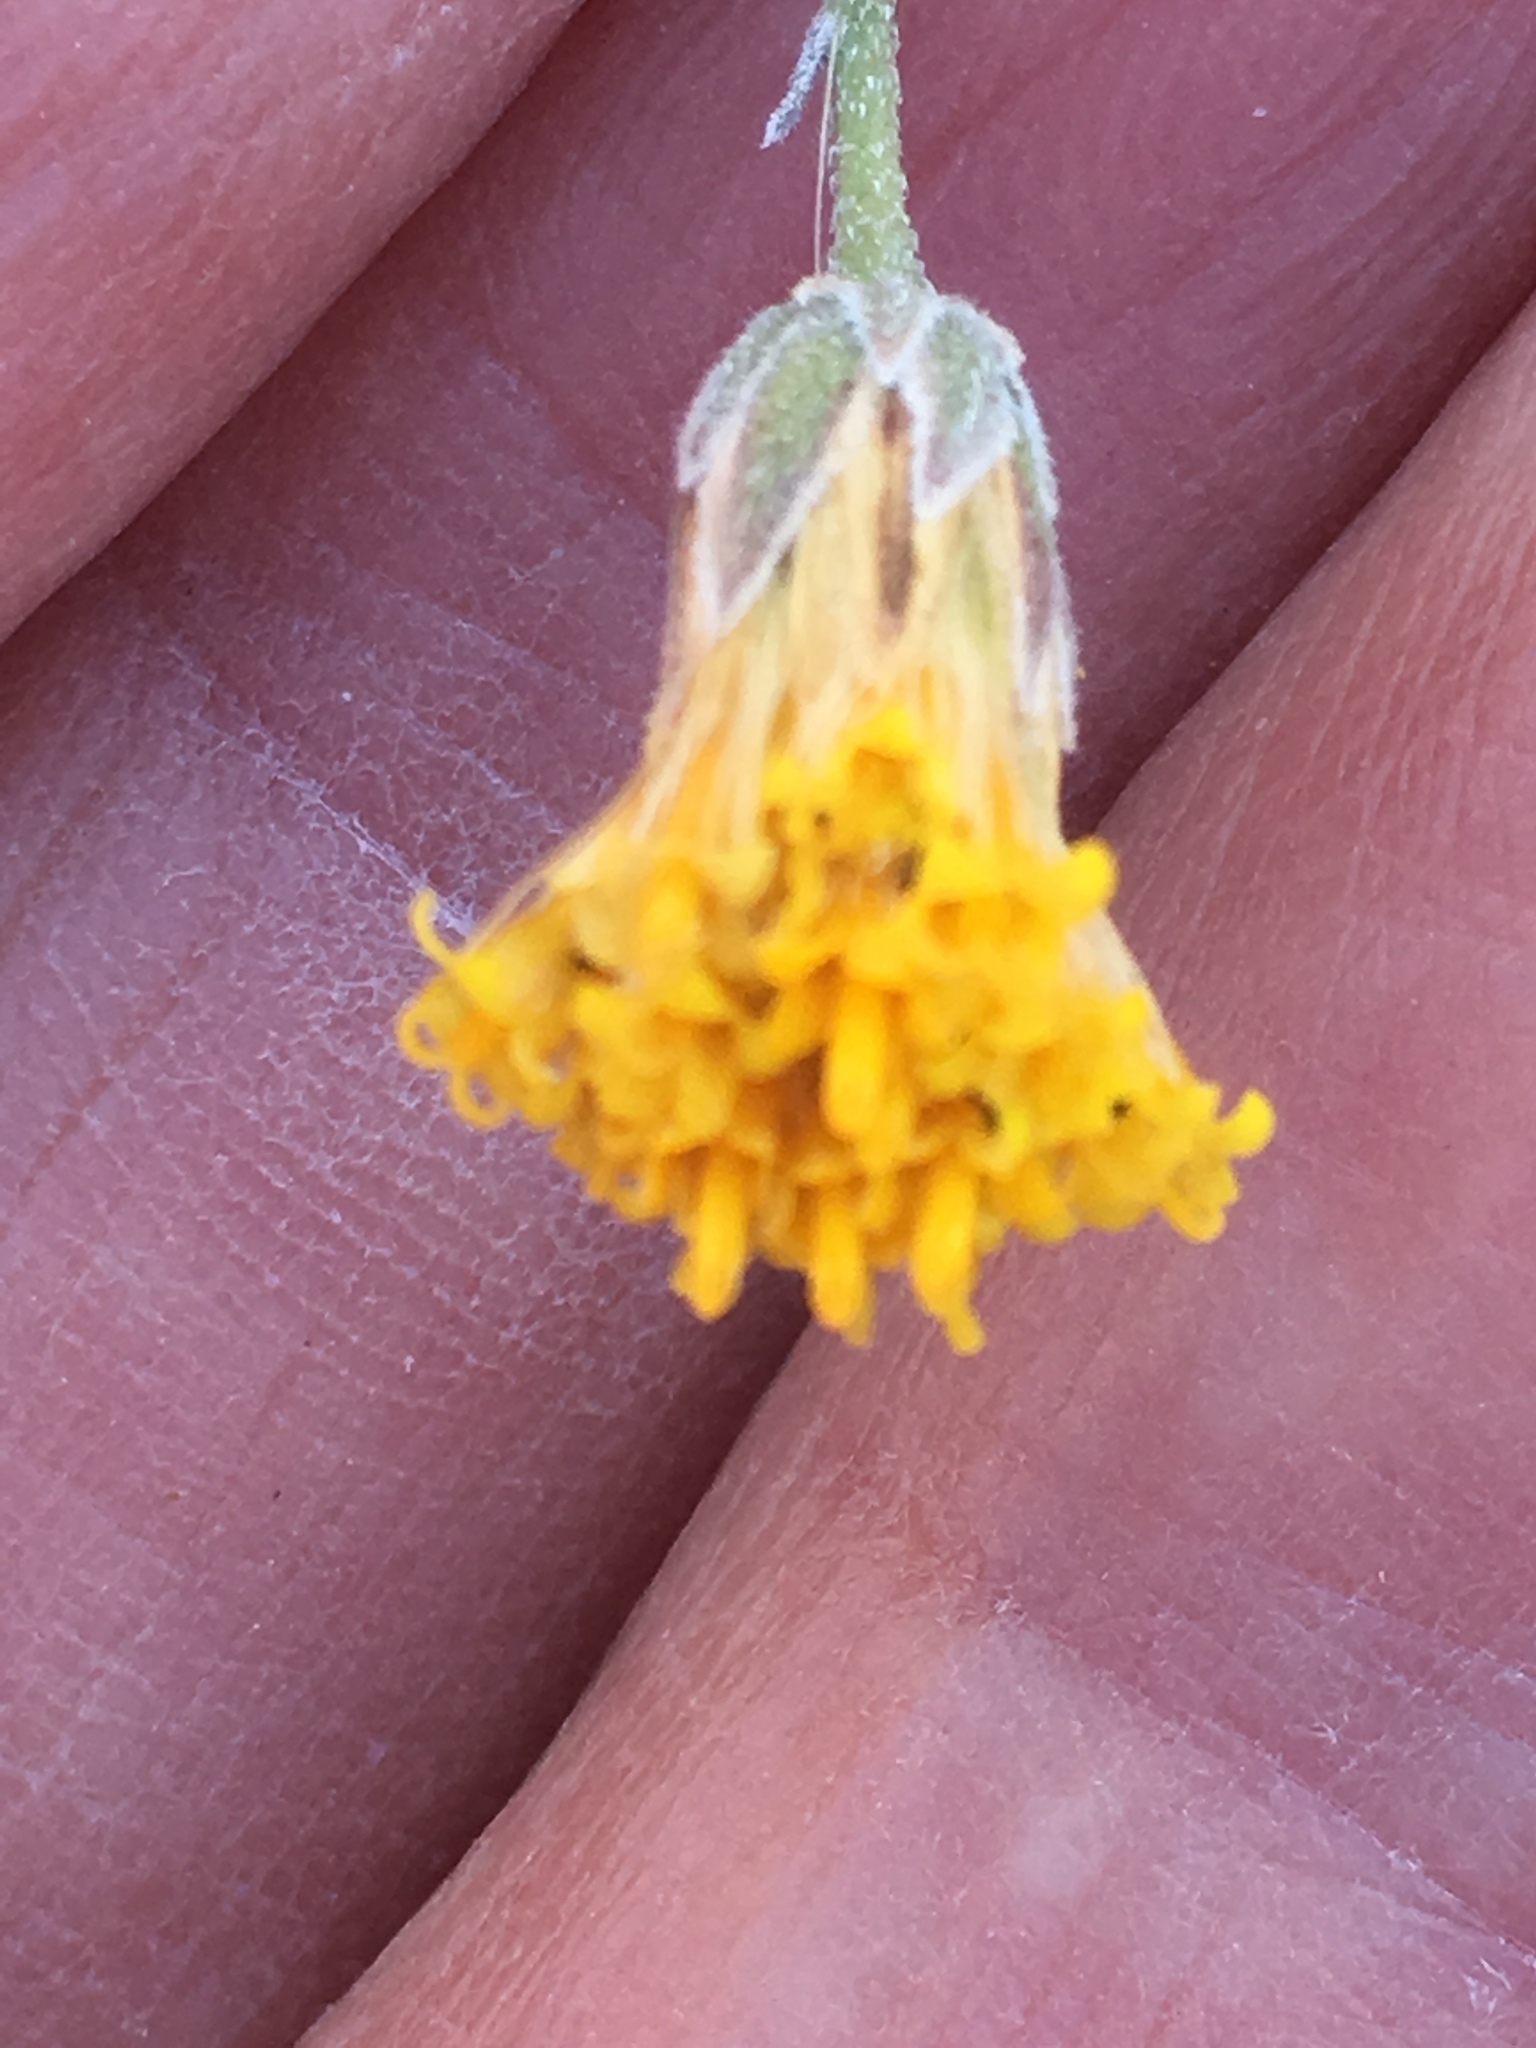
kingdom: Plantae
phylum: Tracheophyta
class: Magnoliopsida
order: Asterales
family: Asteraceae
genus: Bebbia
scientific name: Bebbia juncea
